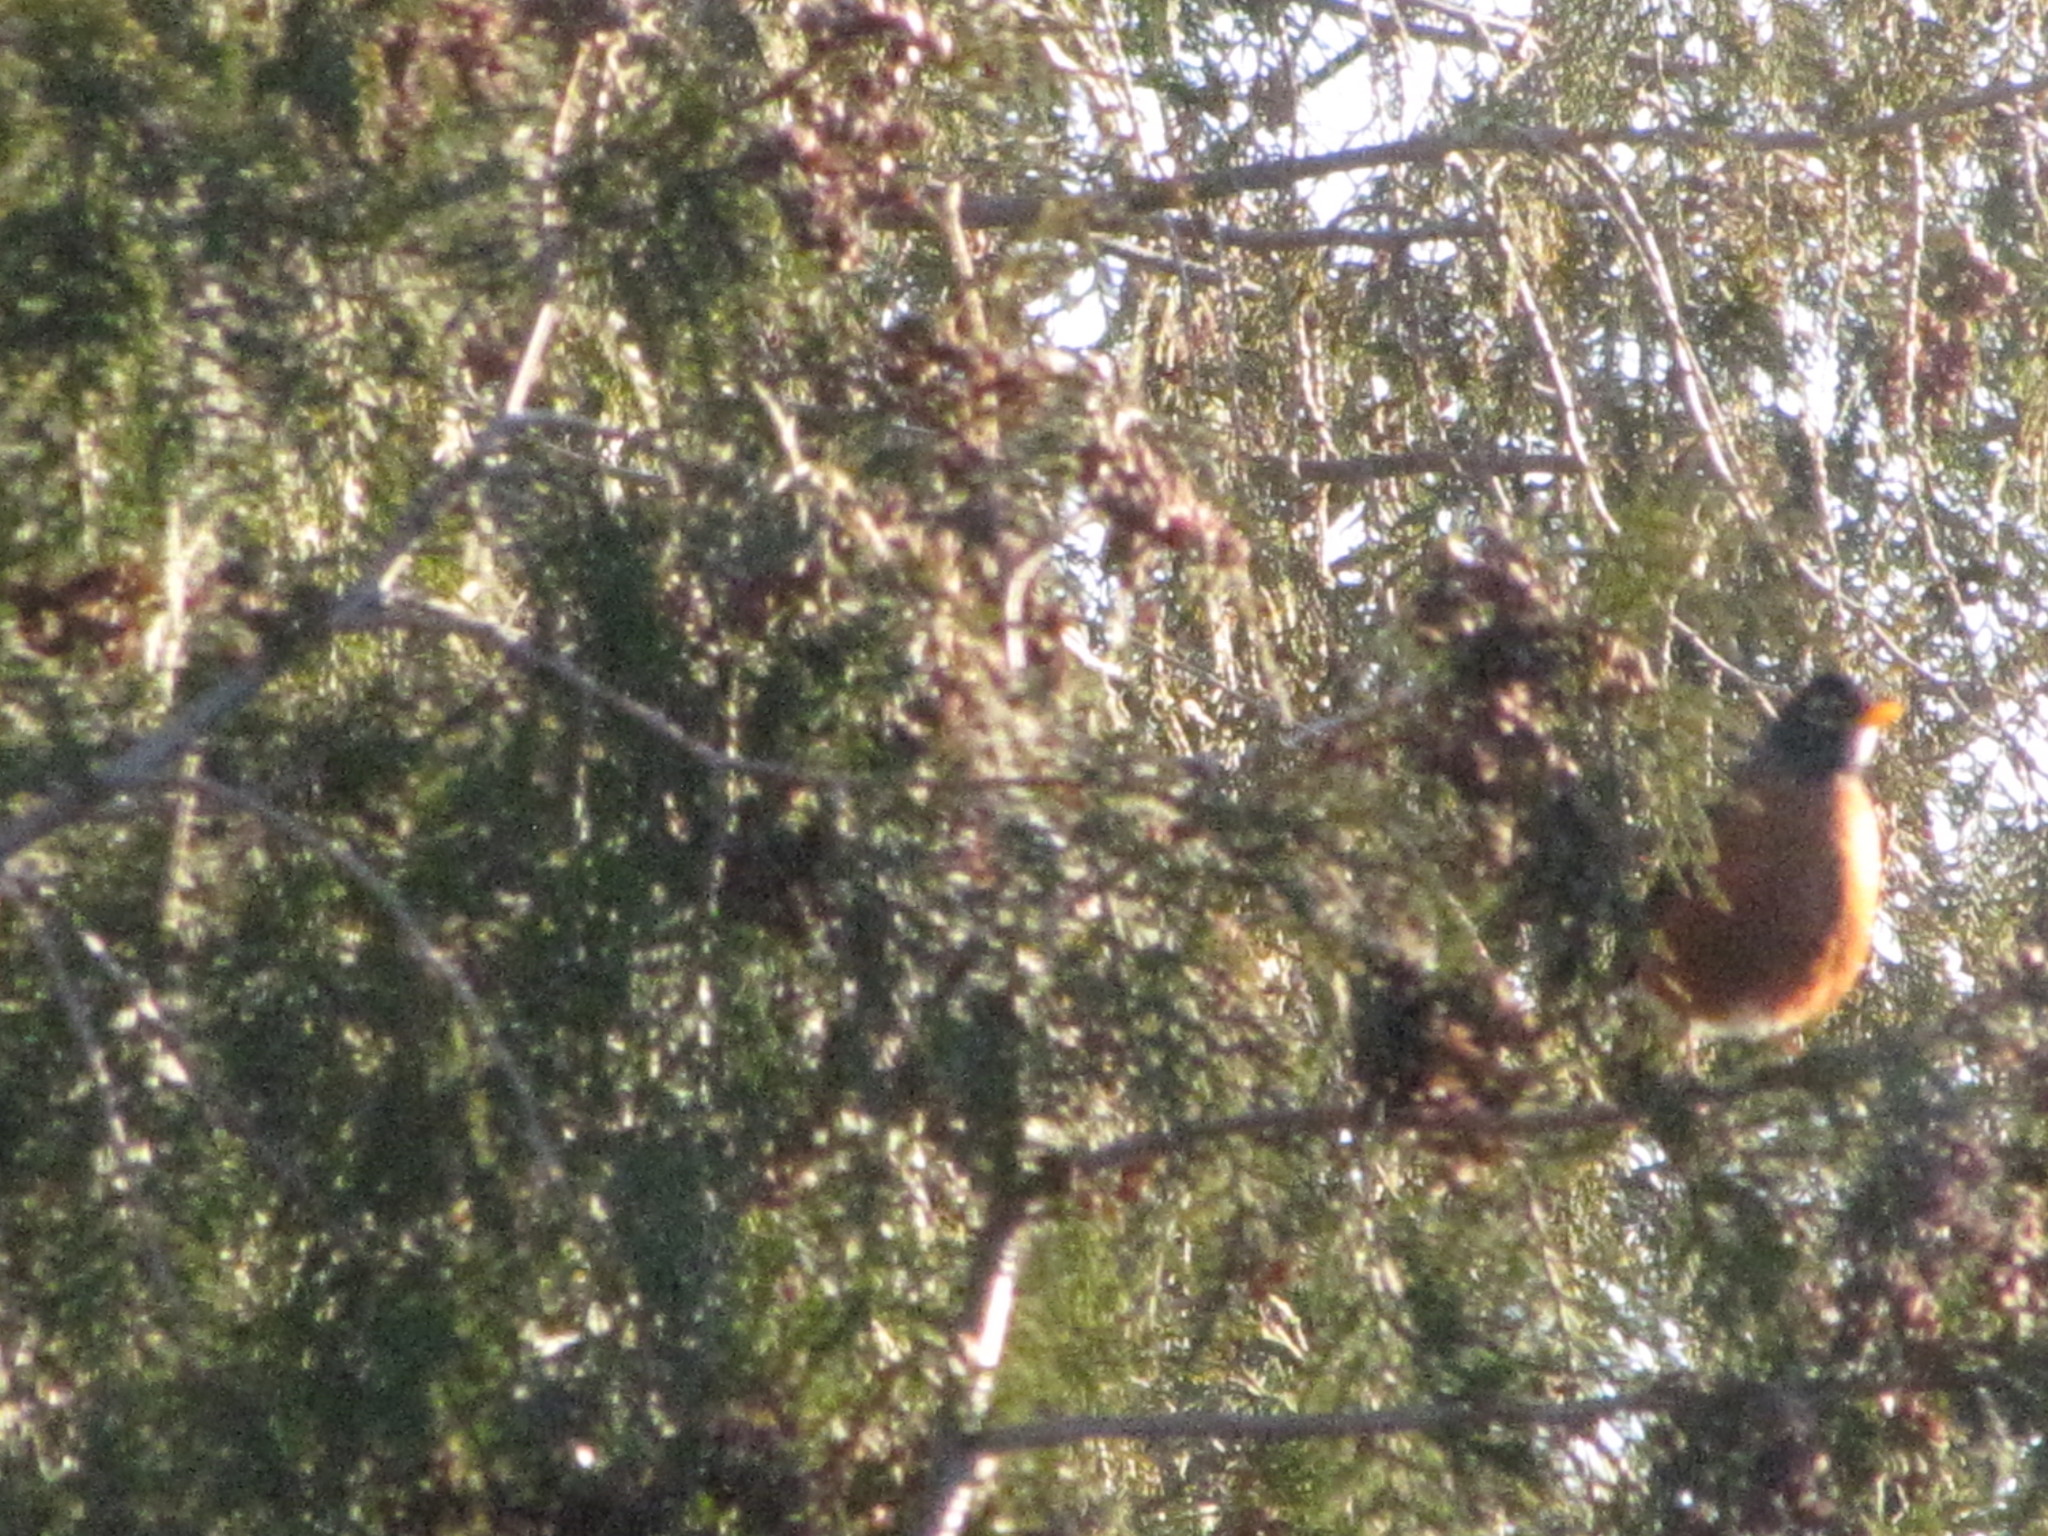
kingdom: Animalia
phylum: Chordata
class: Aves
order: Passeriformes
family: Turdidae
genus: Turdus
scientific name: Turdus migratorius
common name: American robin
